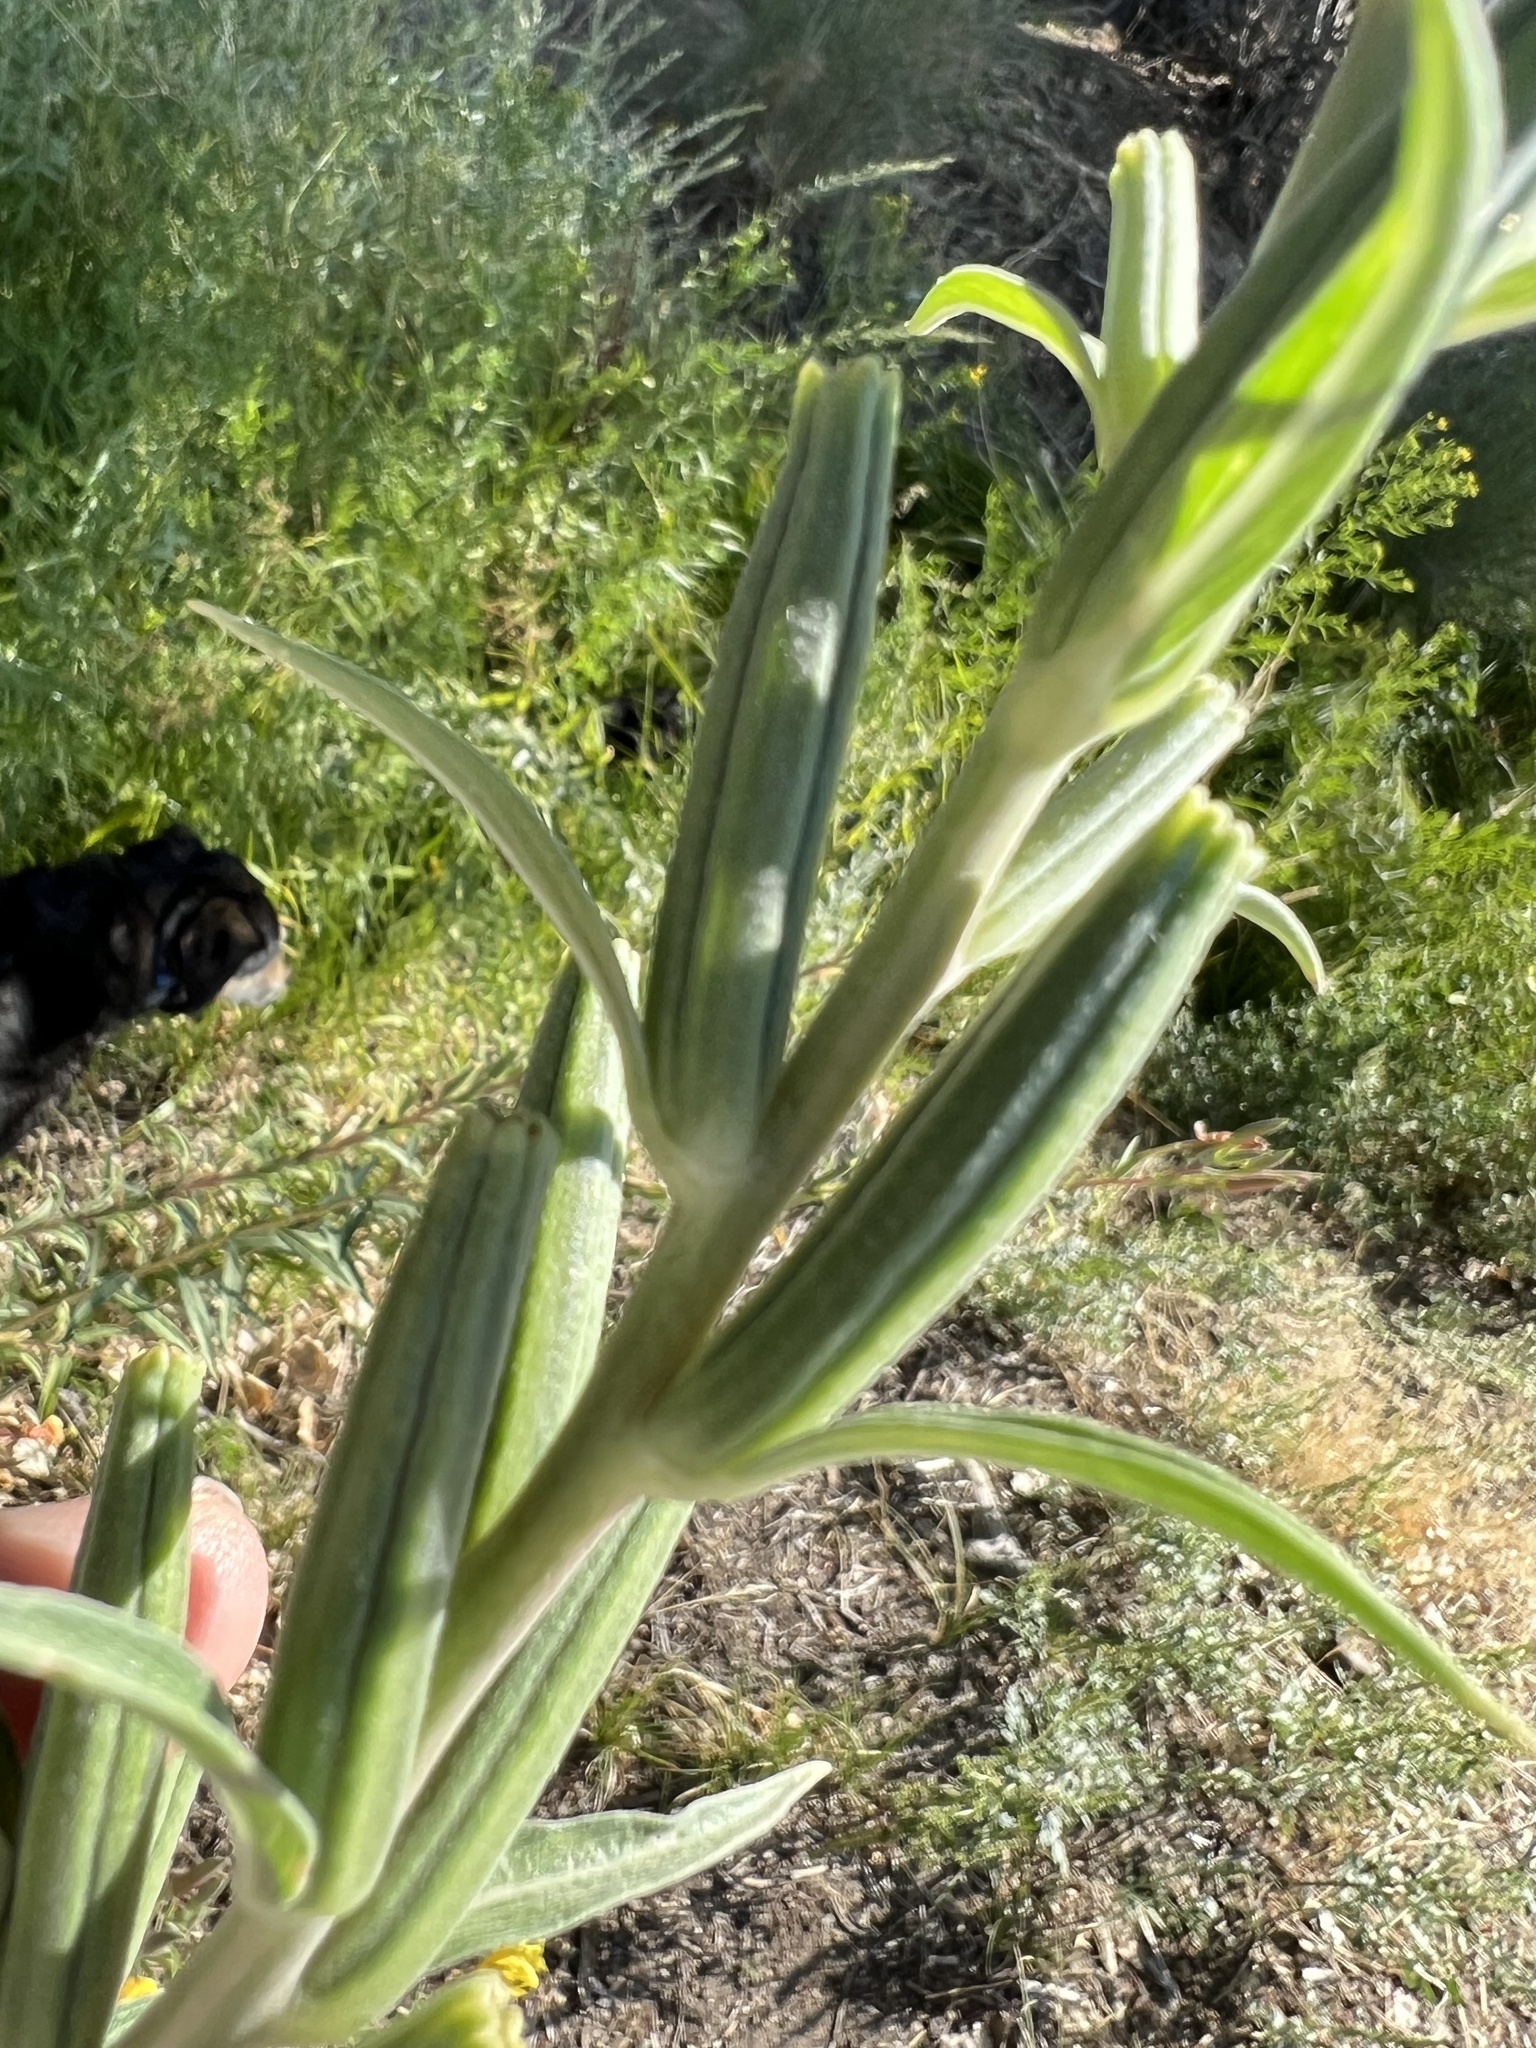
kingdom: Plantae
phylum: Tracheophyta
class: Magnoliopsida
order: Myrtales
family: Onagraceae
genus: Oenothera
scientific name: Oenothera elata
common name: Hooker's evening-primrose
